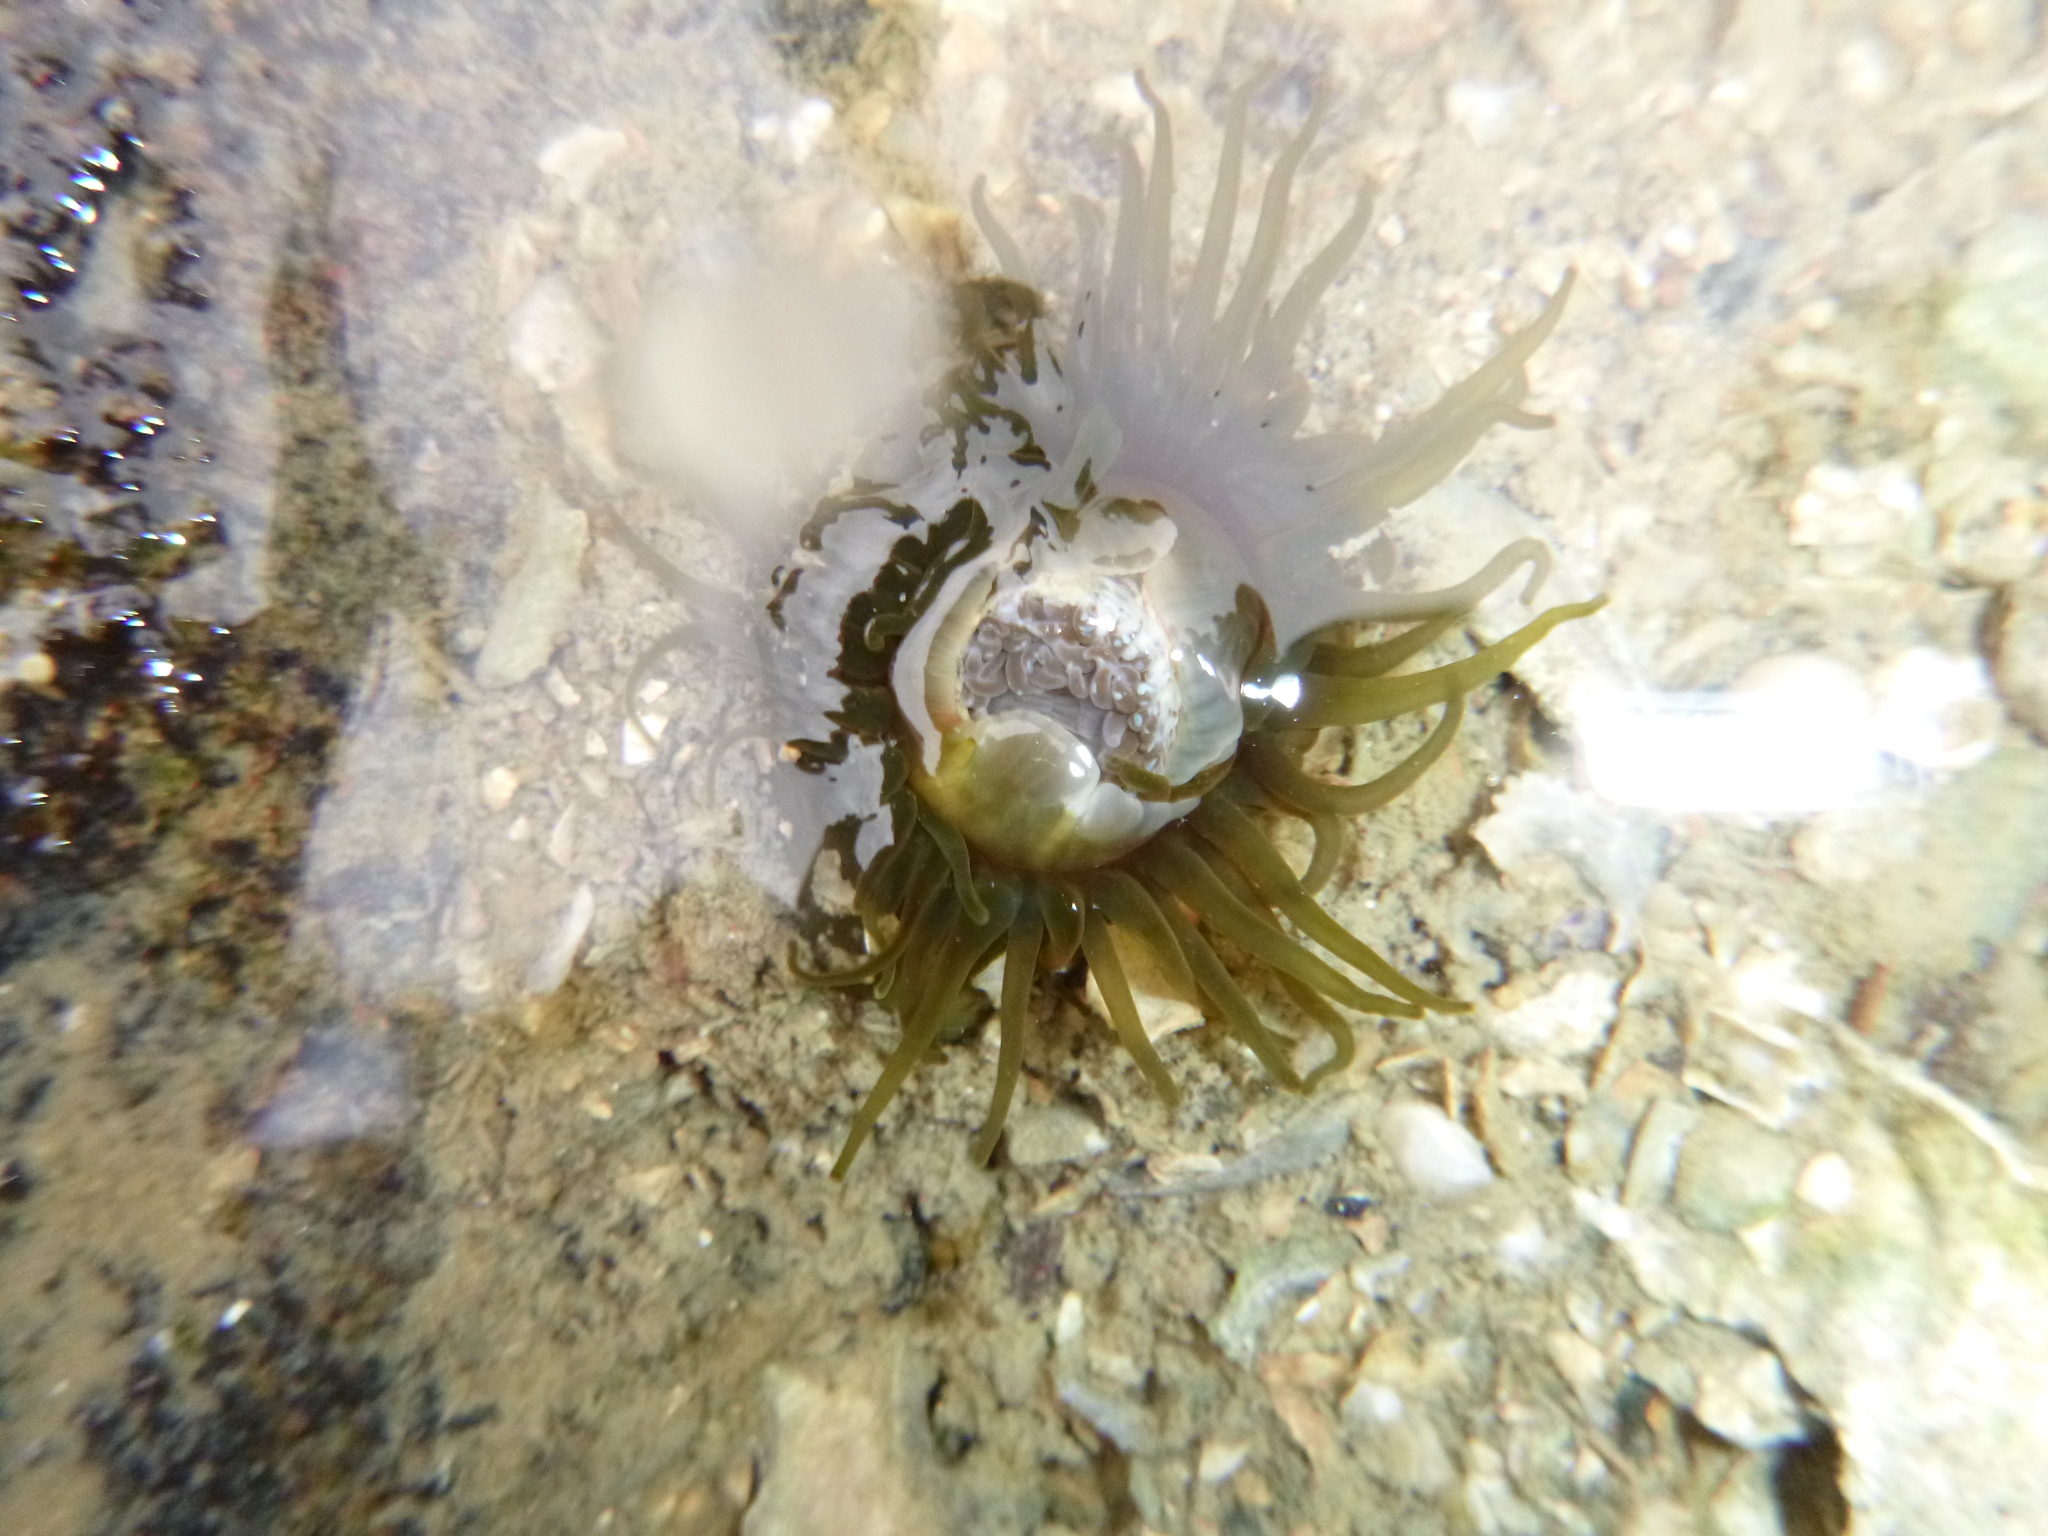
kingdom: Animalia
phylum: Cnidaria
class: Anthozoa
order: Actiniaria
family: Actiniidae
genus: Isactinia
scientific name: Isactinia olivacea
